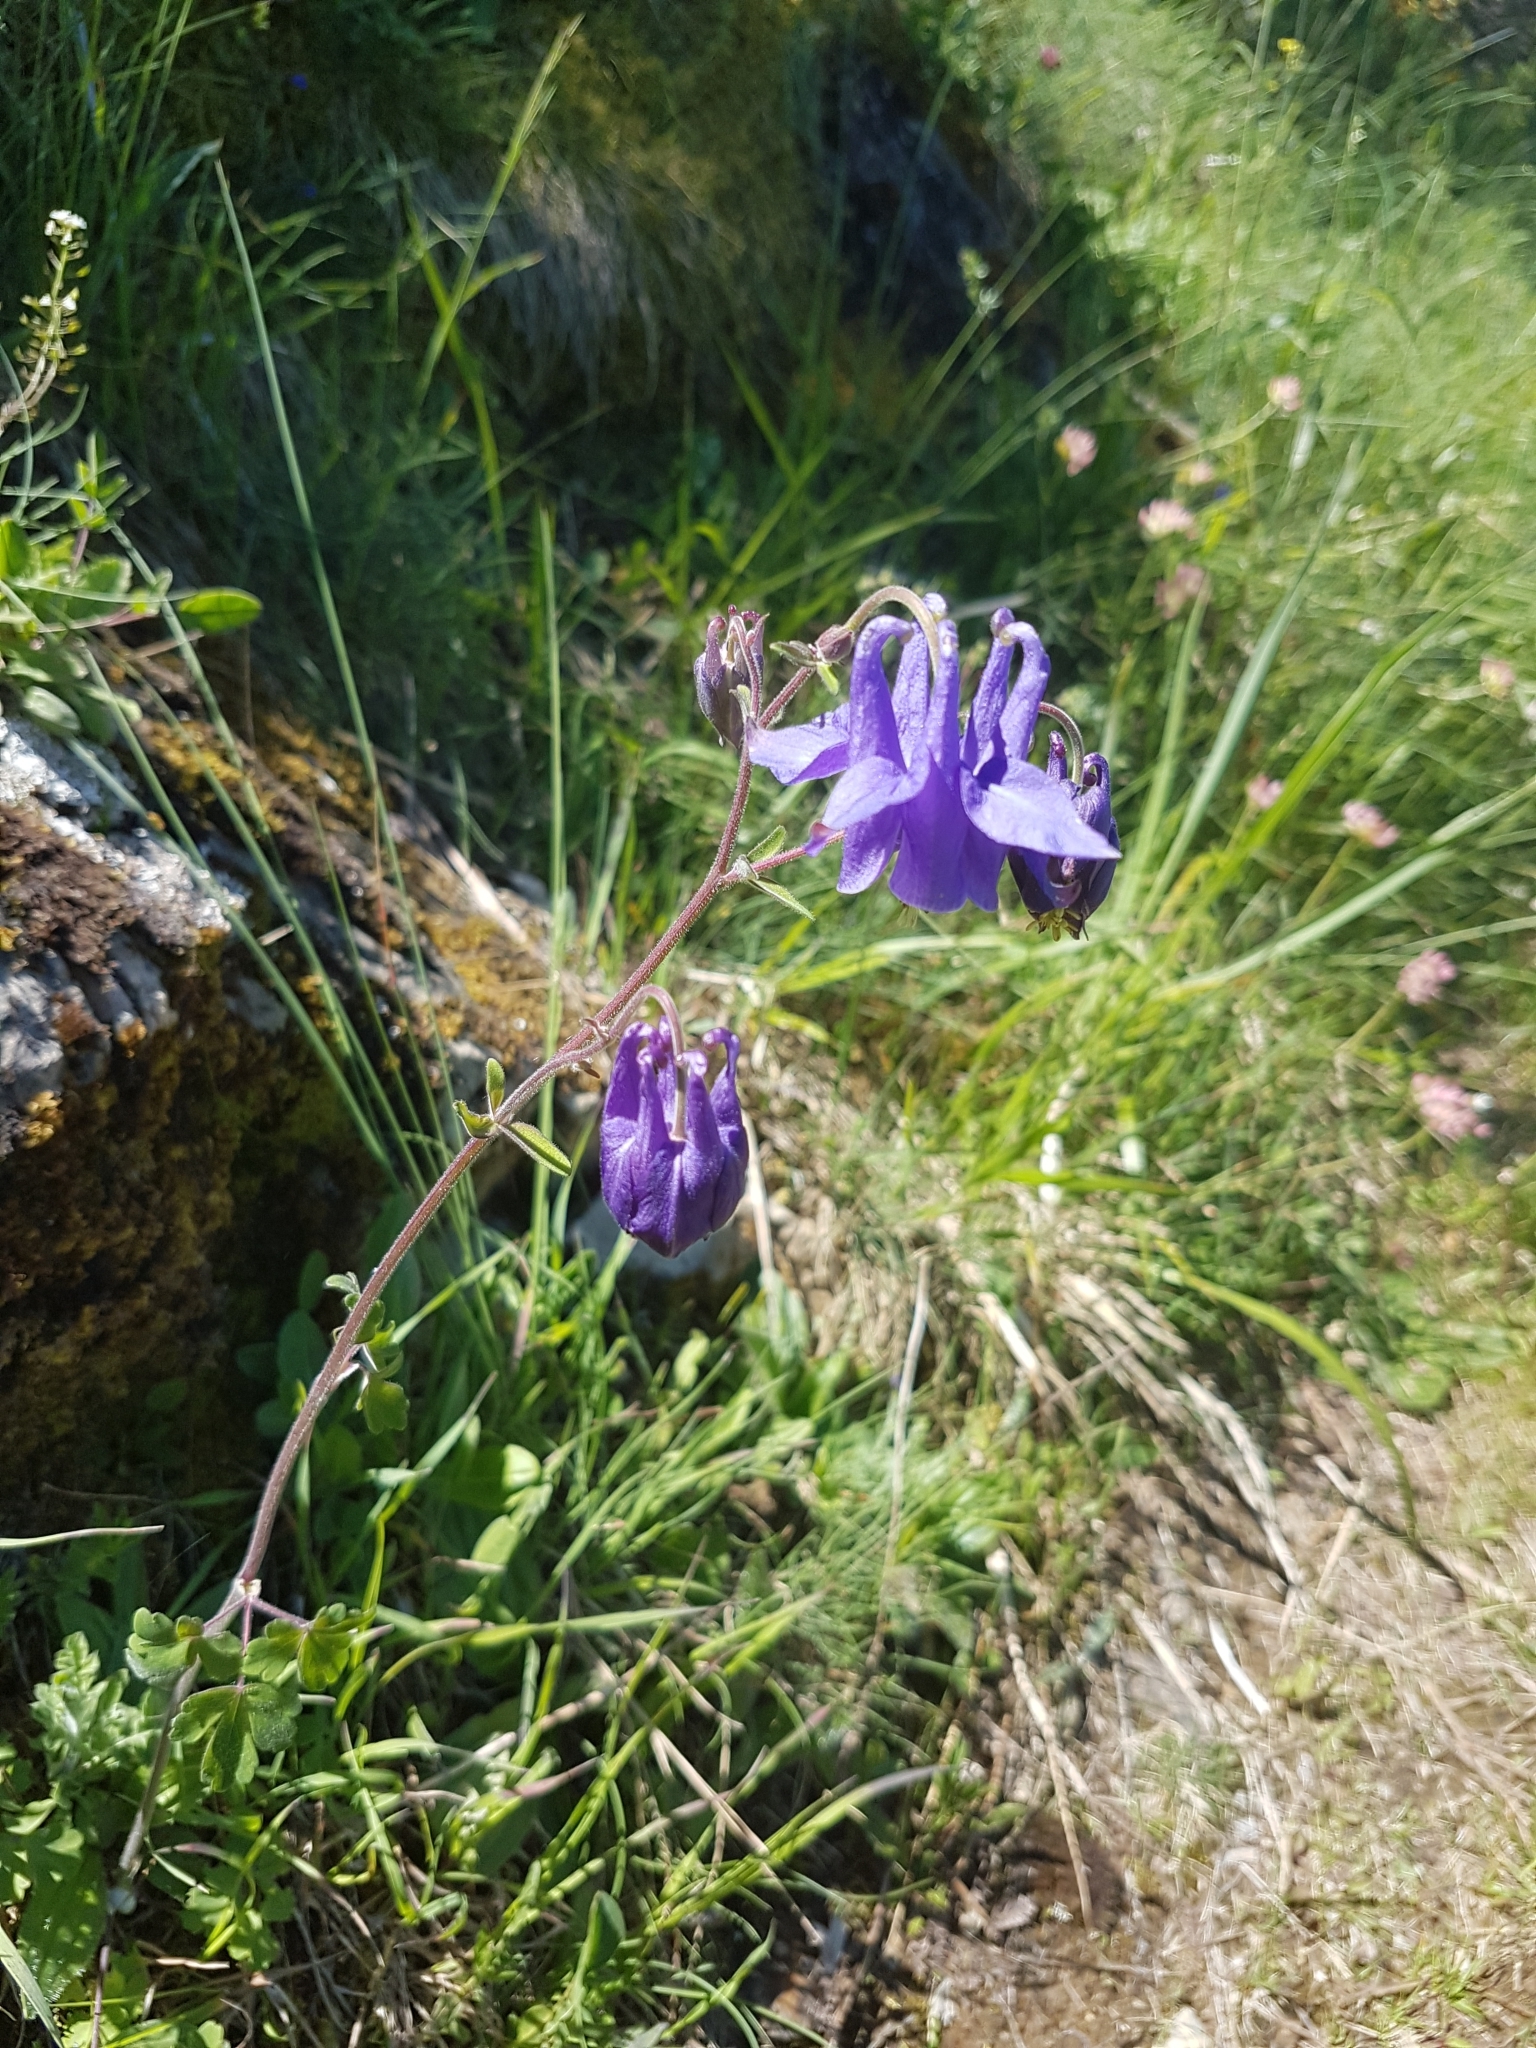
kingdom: Plantae
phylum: Tracheophyta
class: Magnoliopsida
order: Ranunculales
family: Ranunculaceae
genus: Aquilegia
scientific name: Aquilegia vulgaris
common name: Columbine
